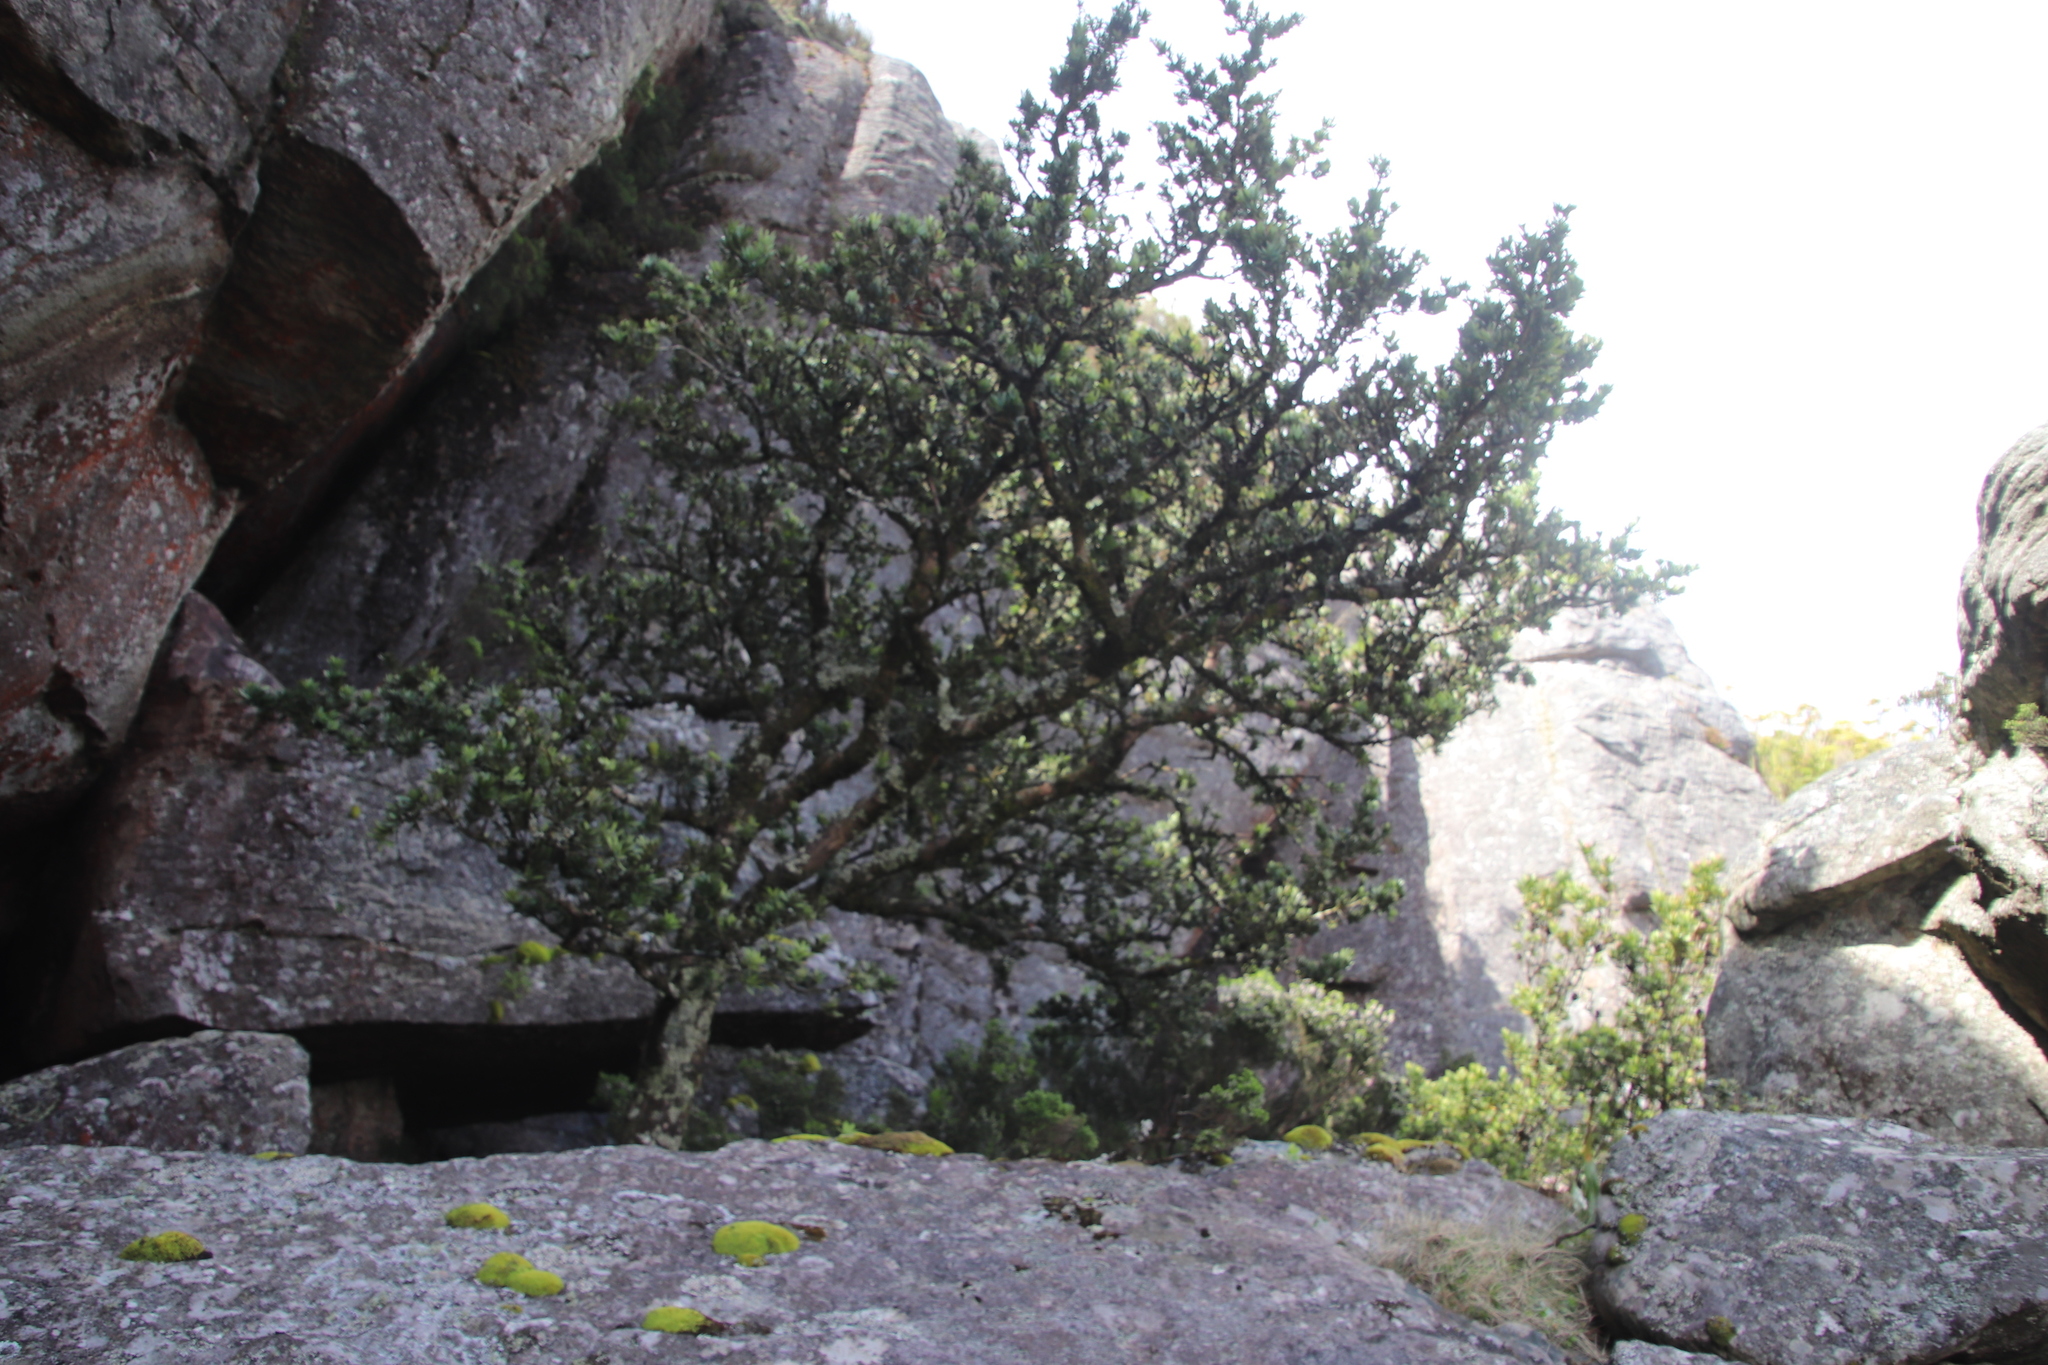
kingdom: Plantae
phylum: Tracheophyta
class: Pinopsida
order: Pinales
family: Podocarpaceae
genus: Podocarpus
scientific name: Podocarpus latifolius
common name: True yellowwood
